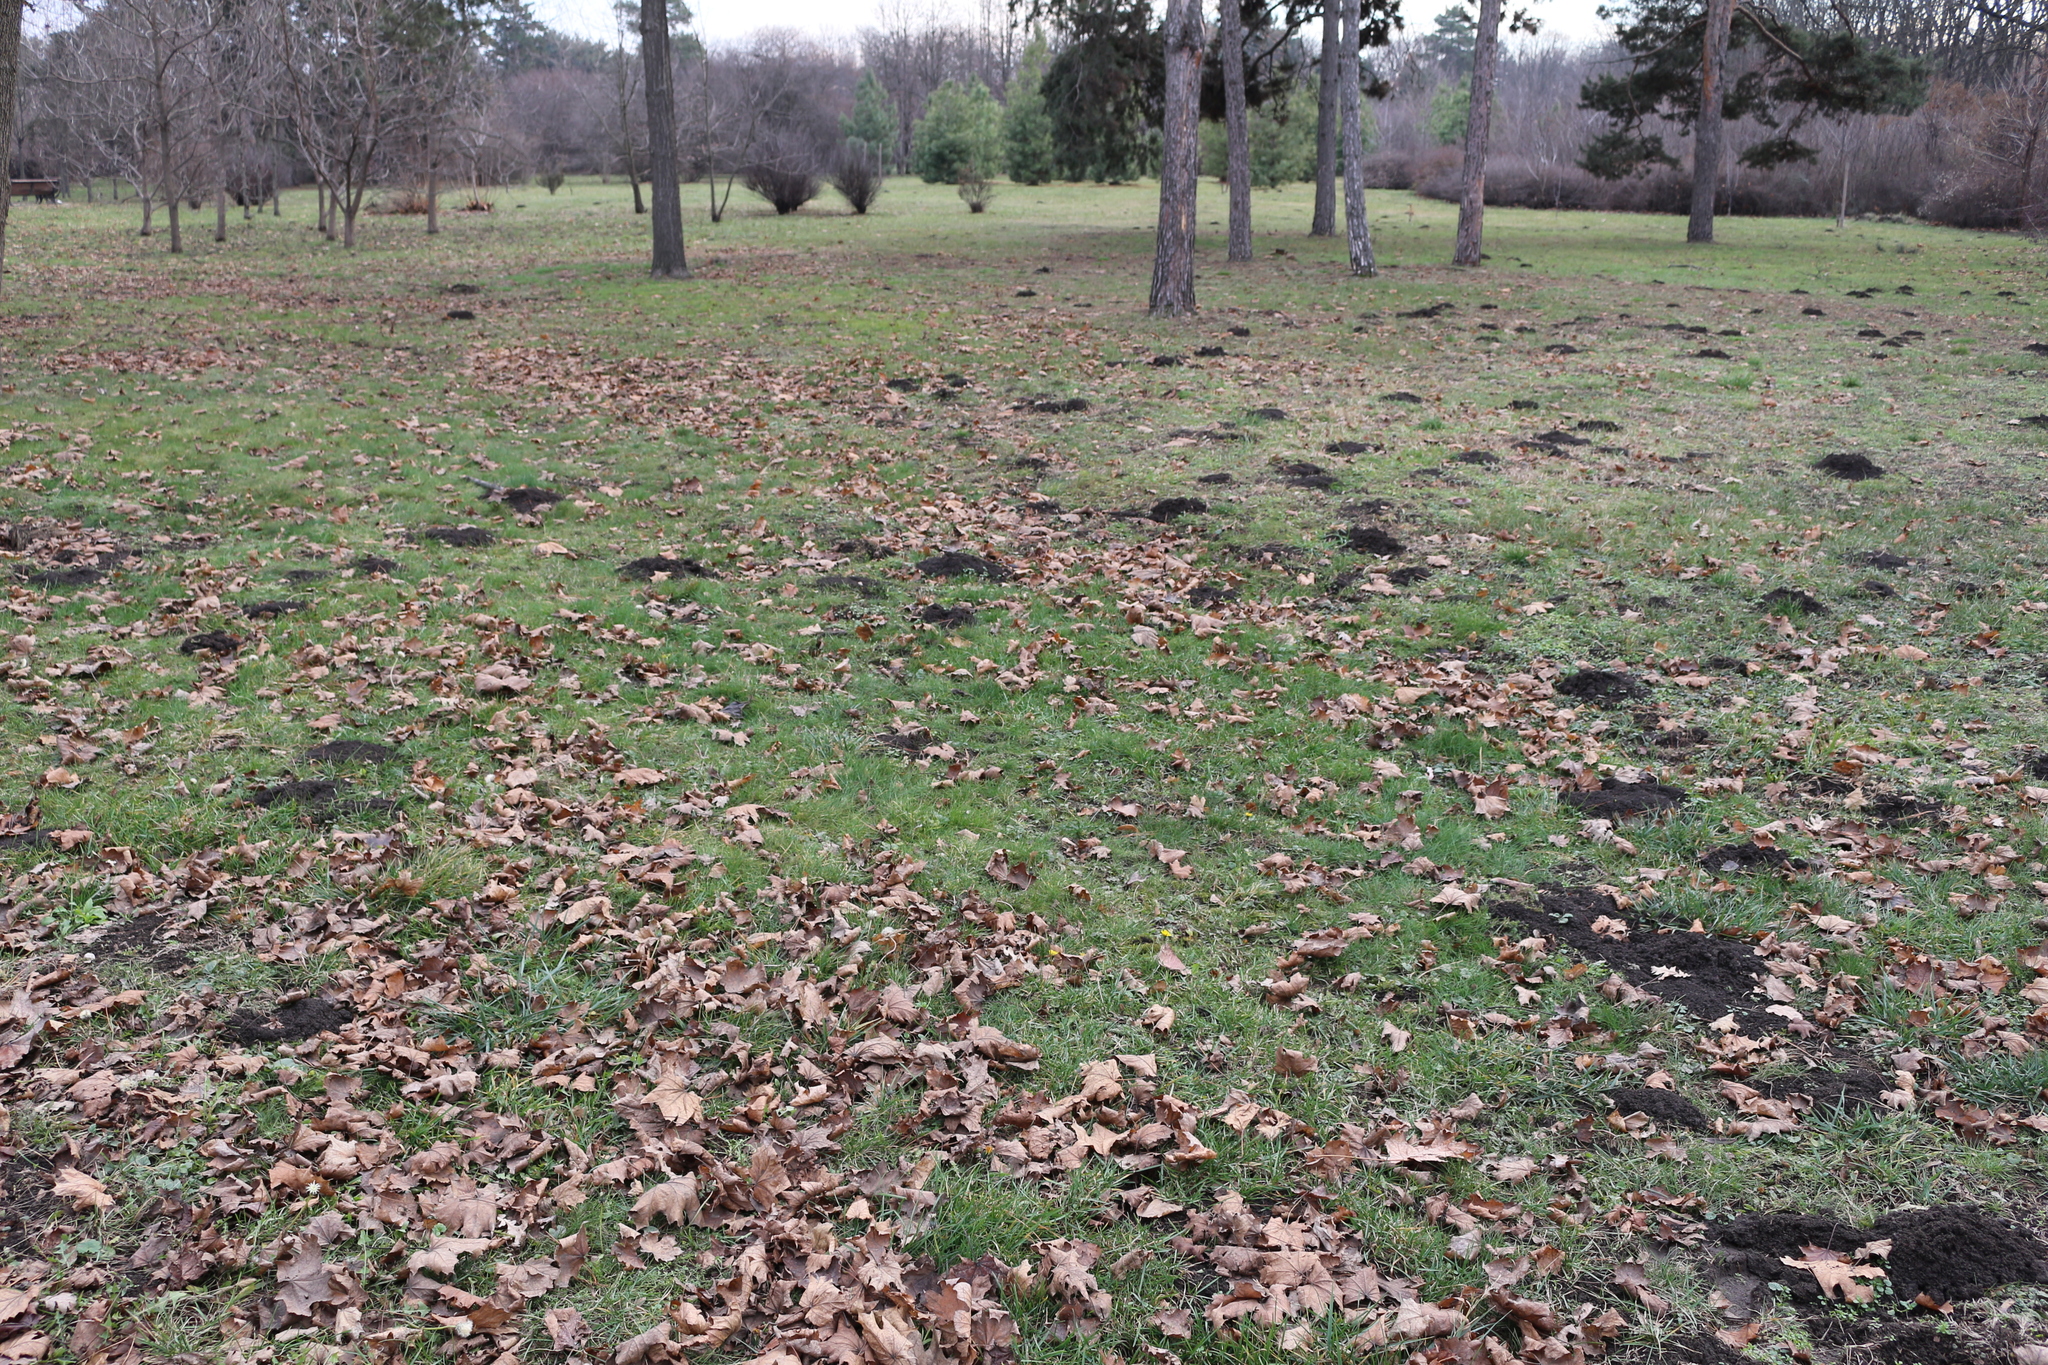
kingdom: Animalia
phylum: Chordata
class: Mammalia
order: Rodentia
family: Spalacidae
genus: Spalax
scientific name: Spalax microphthalmus
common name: Greater mole rat
